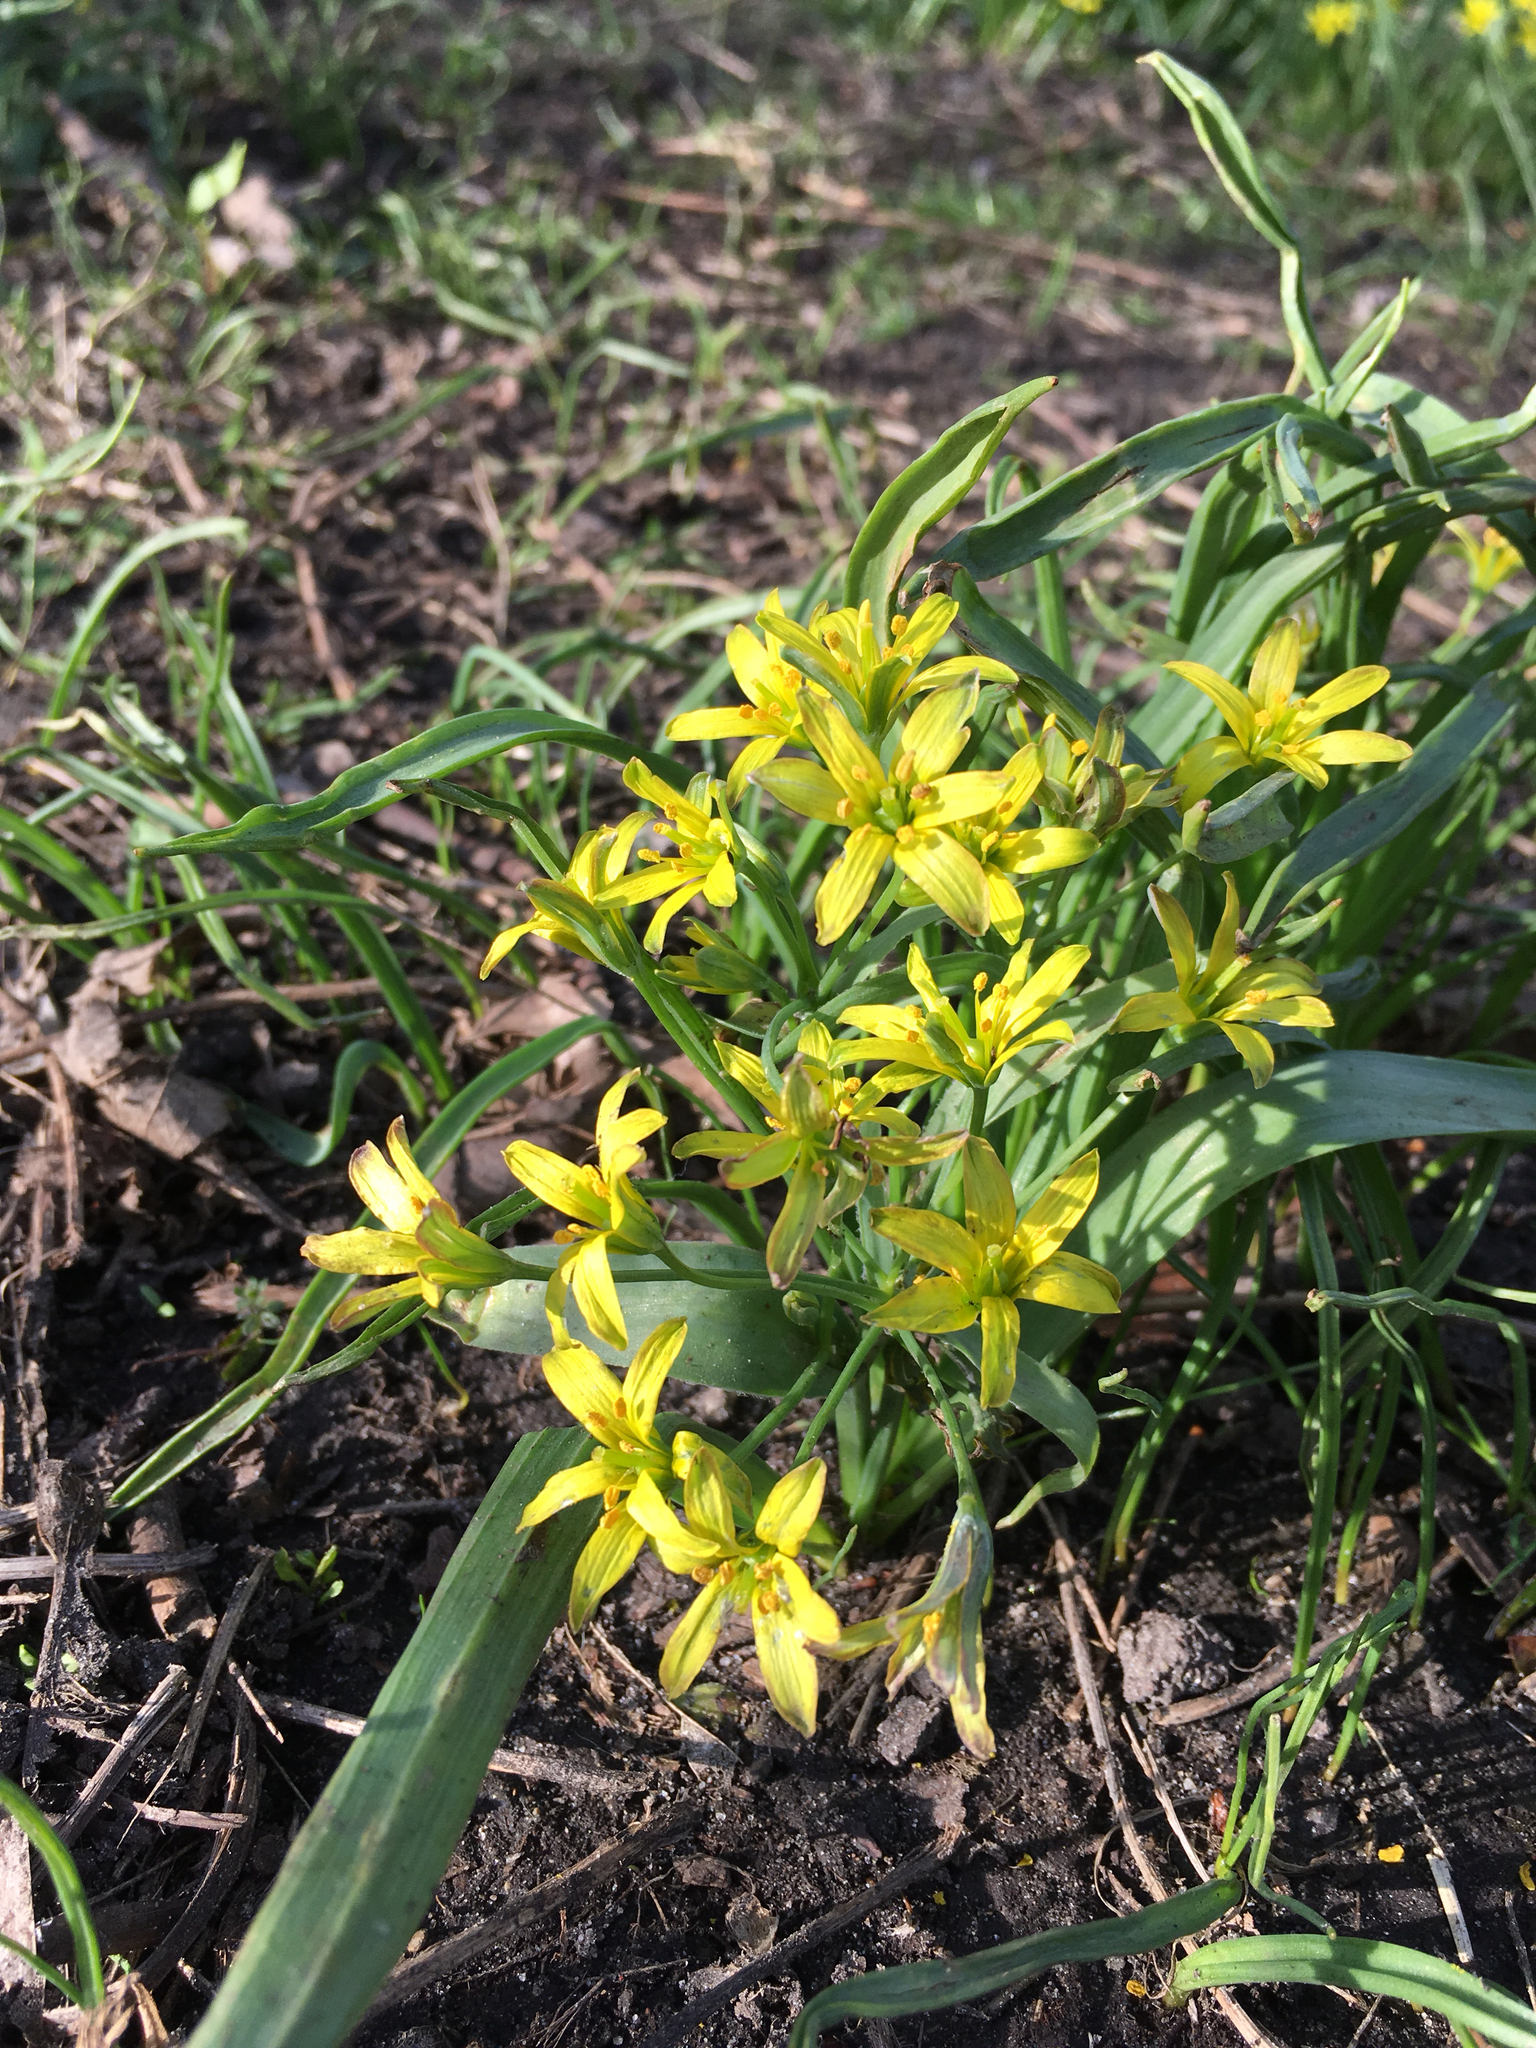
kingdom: Plantae
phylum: Tracheophyta
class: Liliopsida
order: Liliales
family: Liliaceae
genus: Gagea
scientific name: Gagea lutea
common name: Yellow star-of-bethlehem
